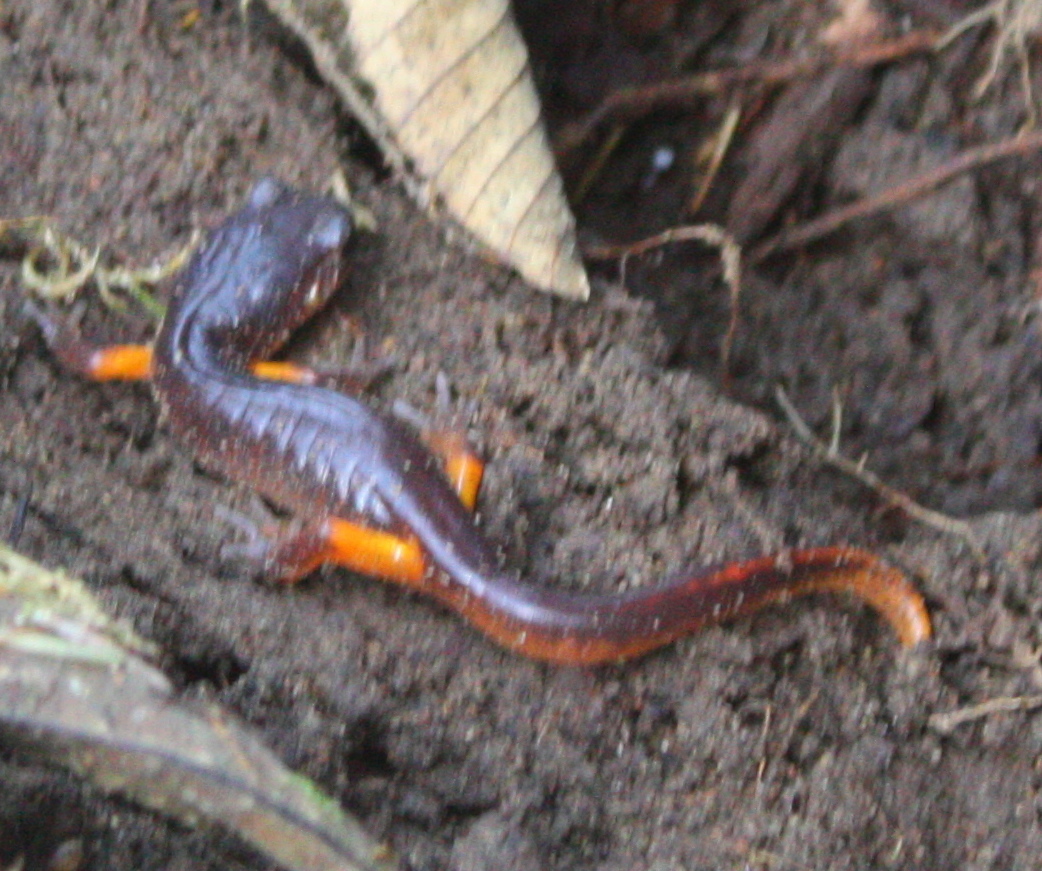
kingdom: Animalia
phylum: Chordata
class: Amphibia
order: Caudata
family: Plethodontidae
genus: Ensatina
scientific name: Ensatina eschscholtzii
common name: Ensatina
